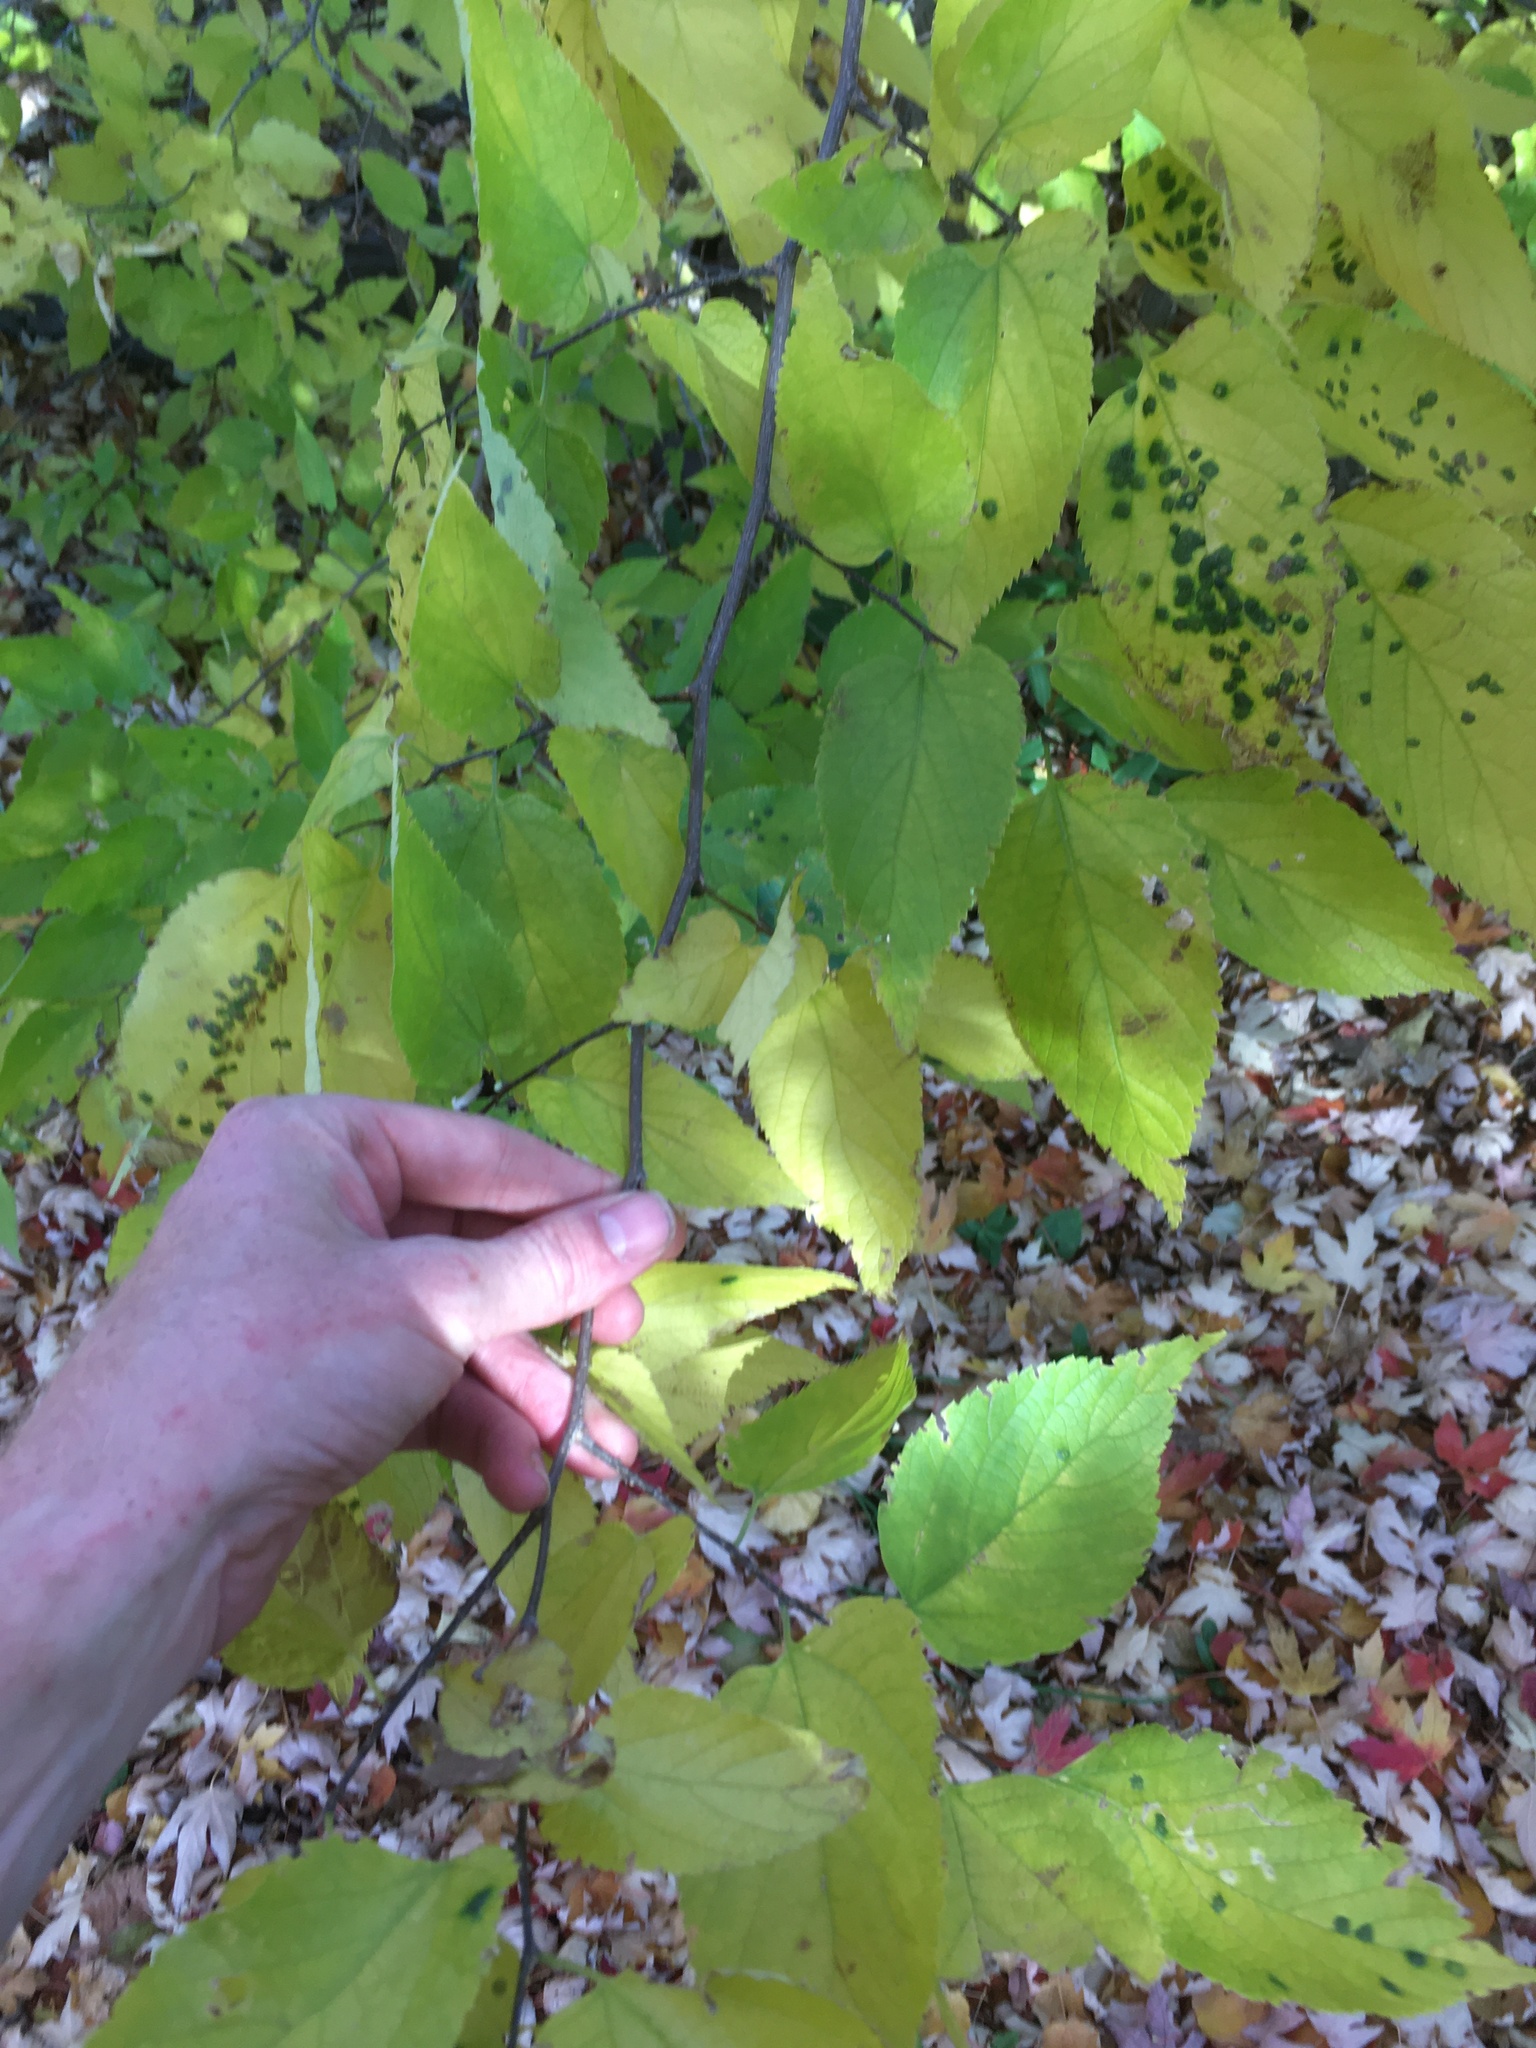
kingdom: Plantae
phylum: Tracheophyta
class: Magnoliopsida
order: Rosales
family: Cannabaceae
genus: Celtis
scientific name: Celtis occidentalis
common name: Common hackberry
